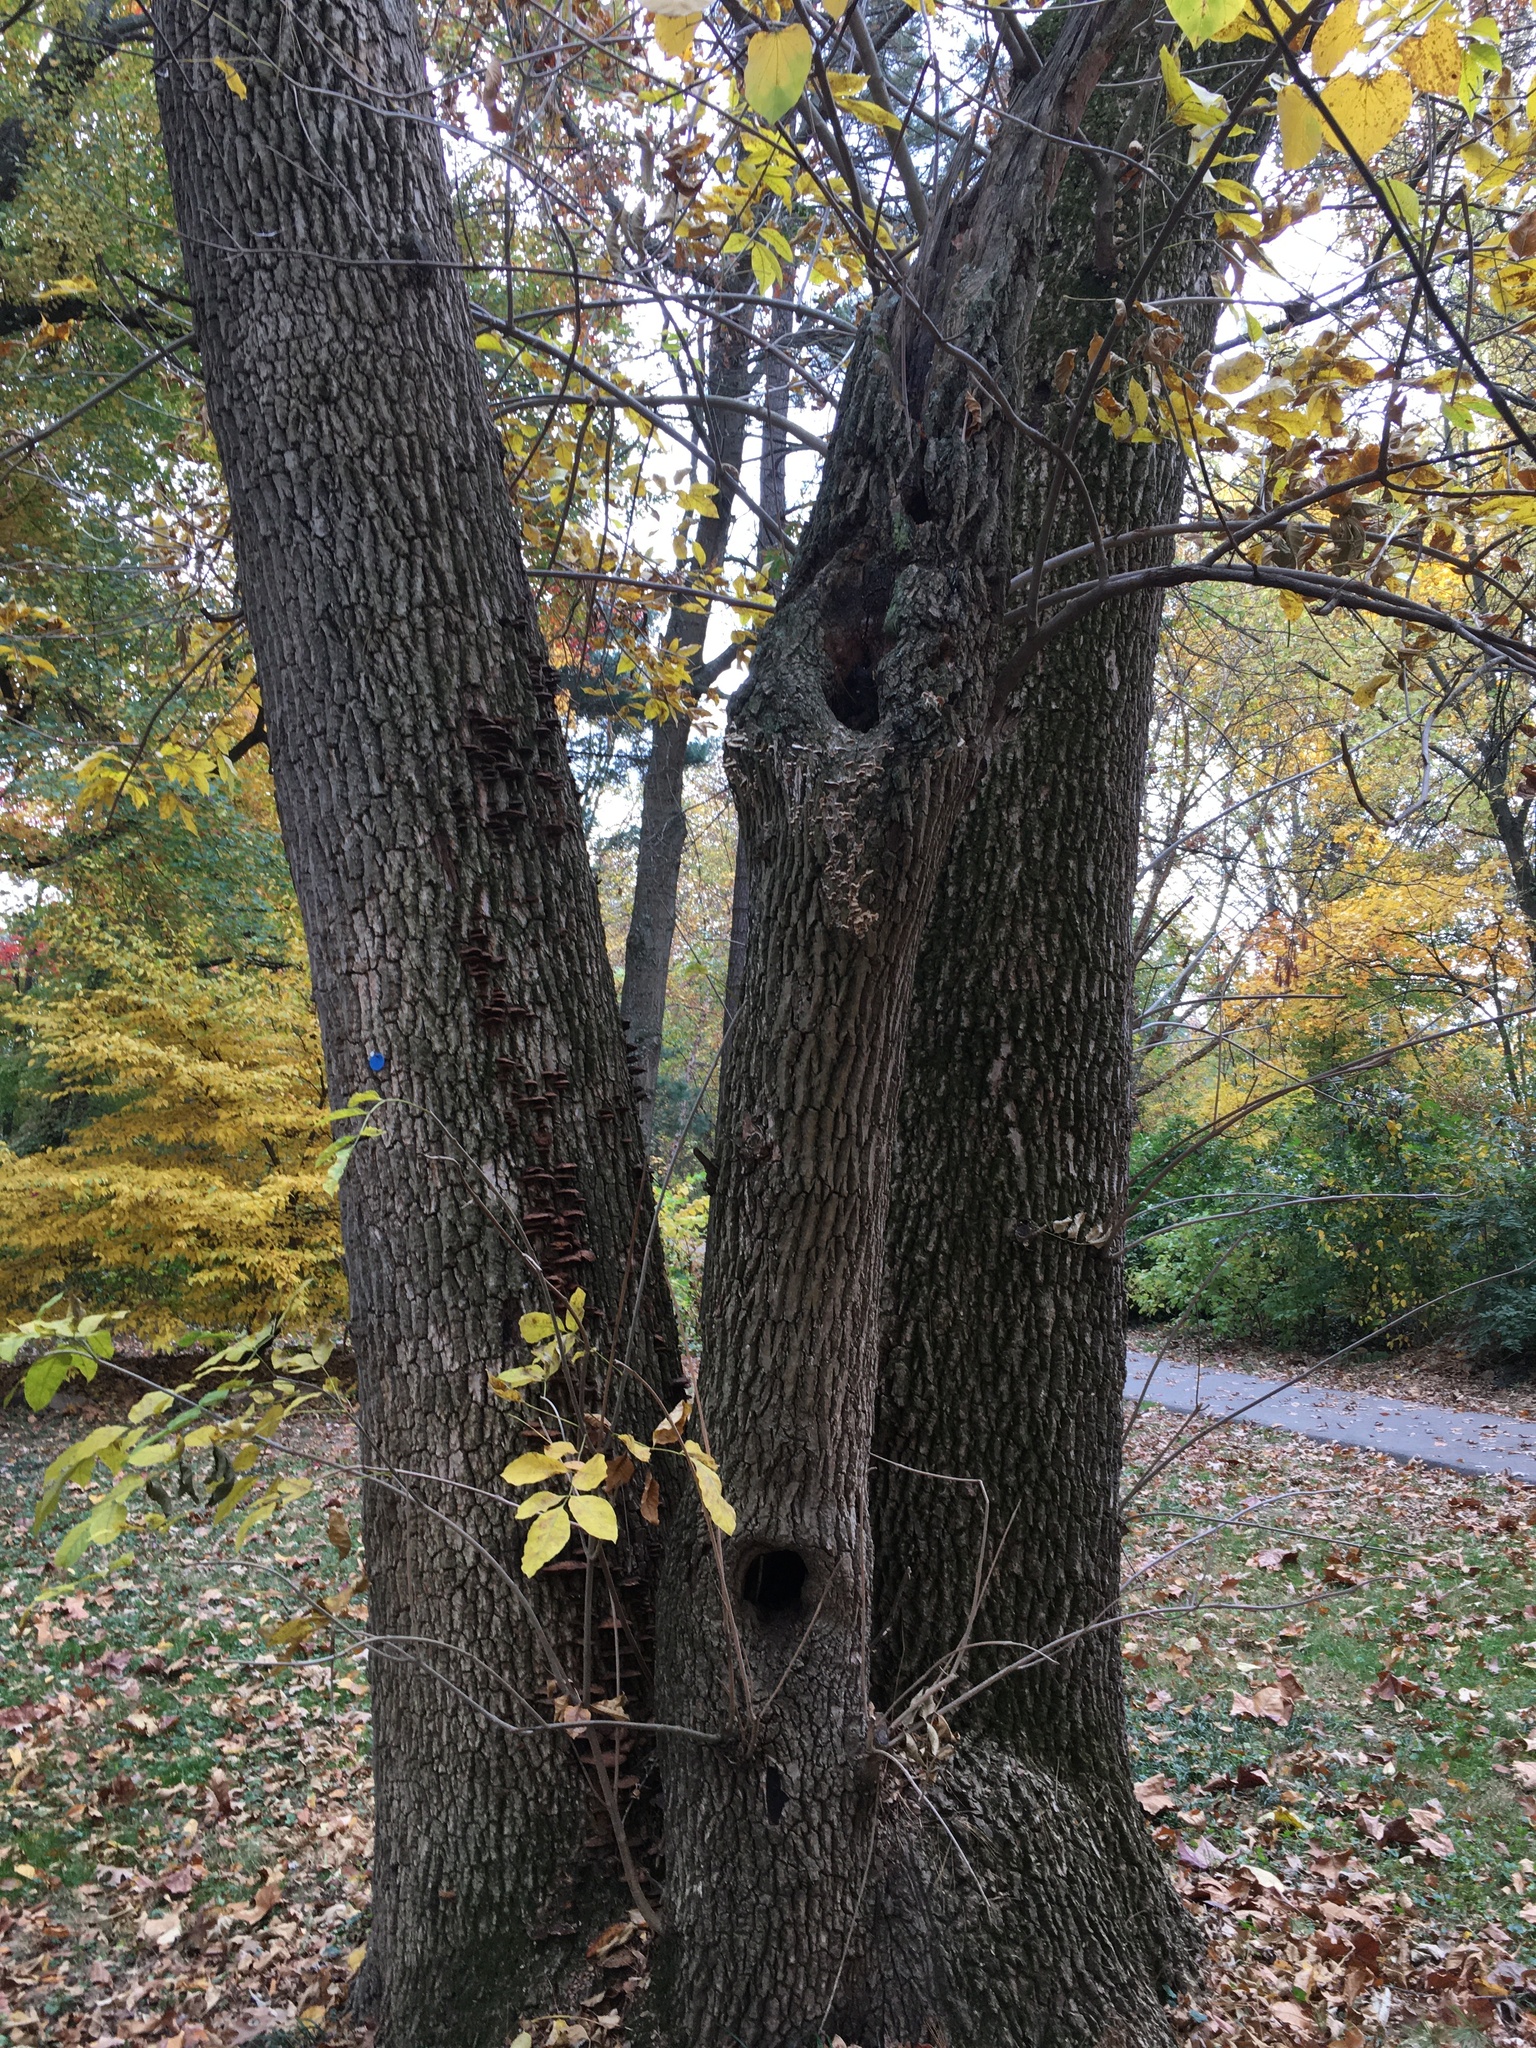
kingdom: Animalia
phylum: Arthropoda
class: Insecta
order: Coleoptera
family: Buprestidae
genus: Agrilus
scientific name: Agrilus planipennis
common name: Emerald ash borer
